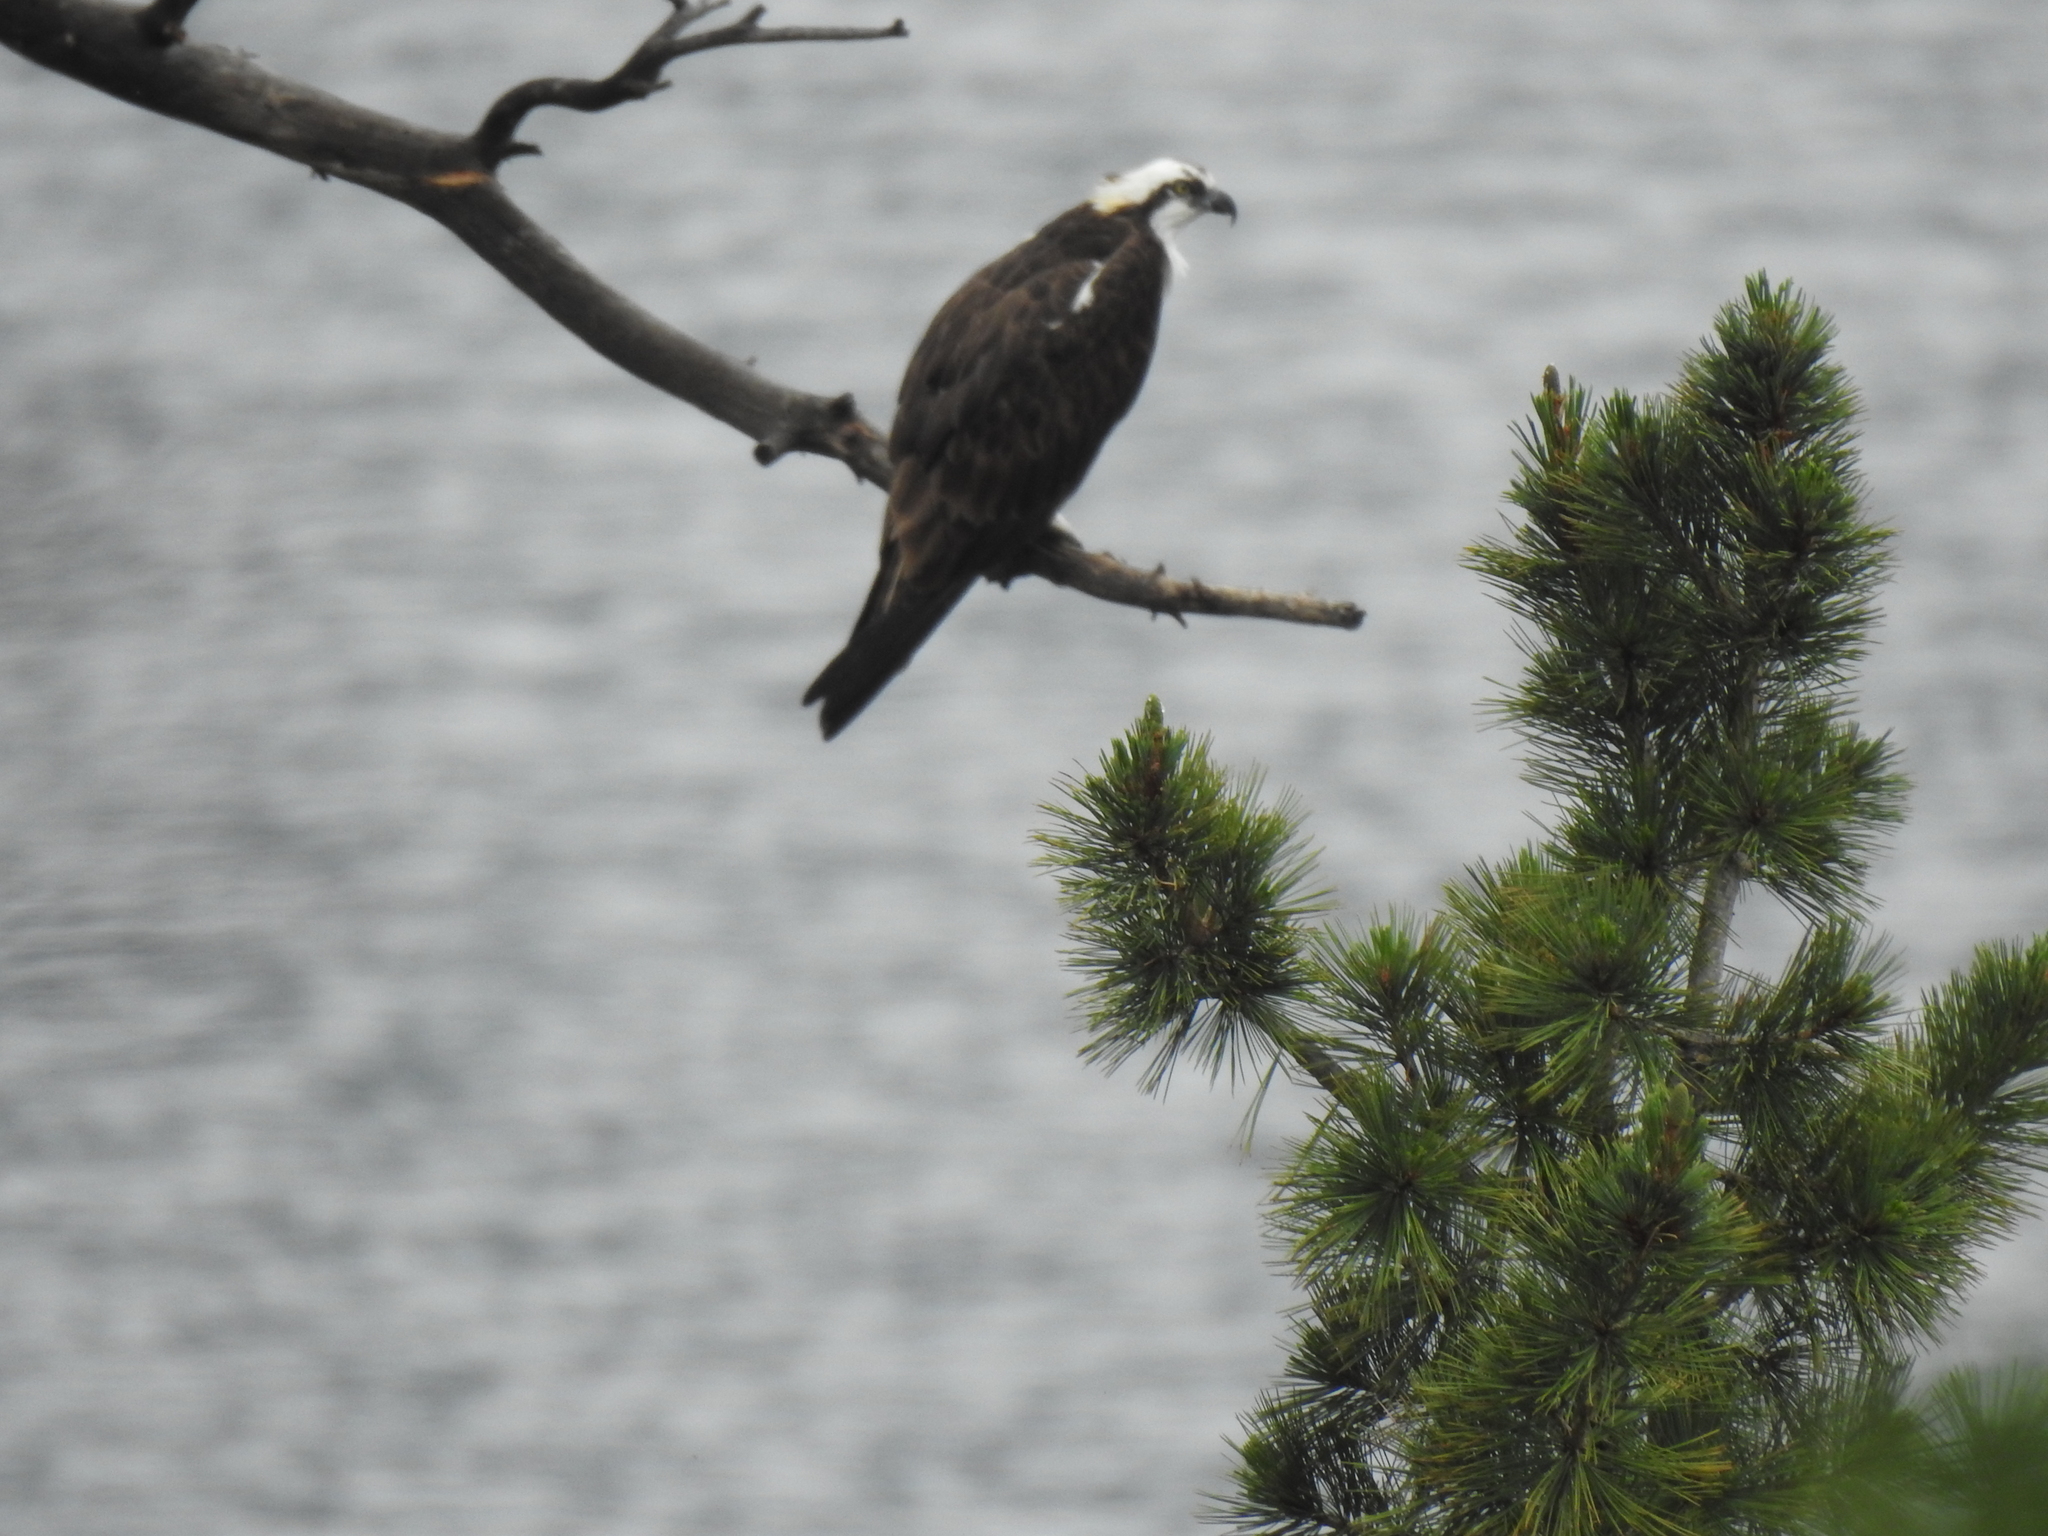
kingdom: Animalia
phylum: Chordata
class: Aves
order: Accipitriformes
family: Pandionidae
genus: Pandion
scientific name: Pandion haliaetus
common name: Osprey
